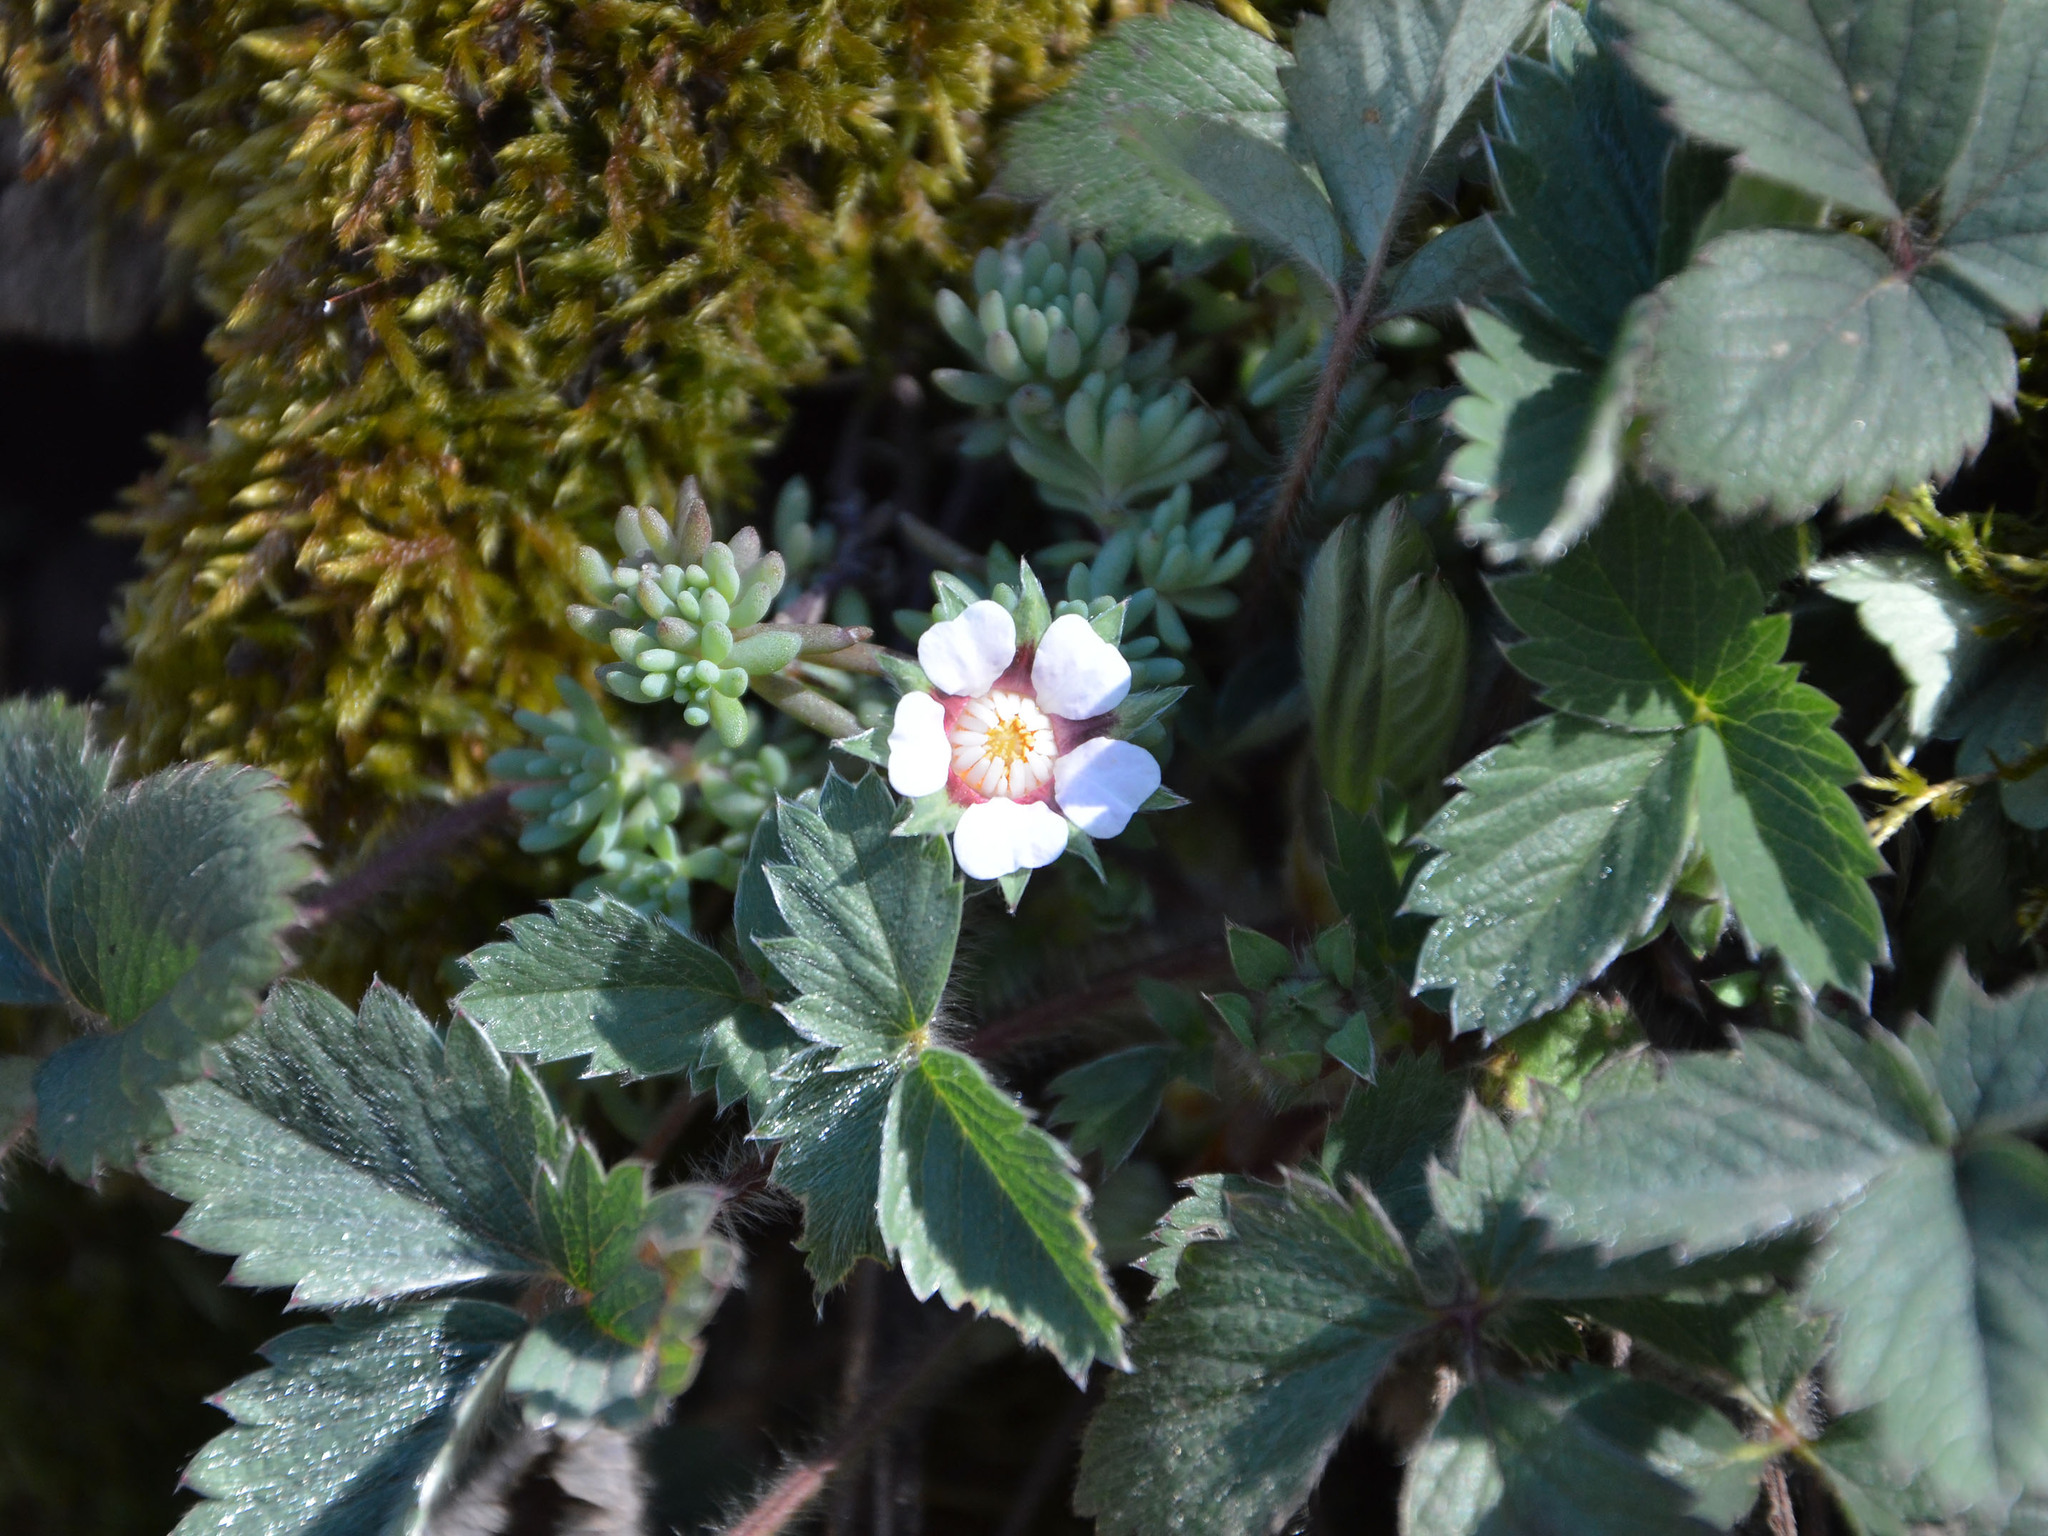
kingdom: Plantae
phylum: Tracheophyta
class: Magnoliopsida
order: Rosales
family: Rosaceae
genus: Potentilla
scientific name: Potentilla micrantha
